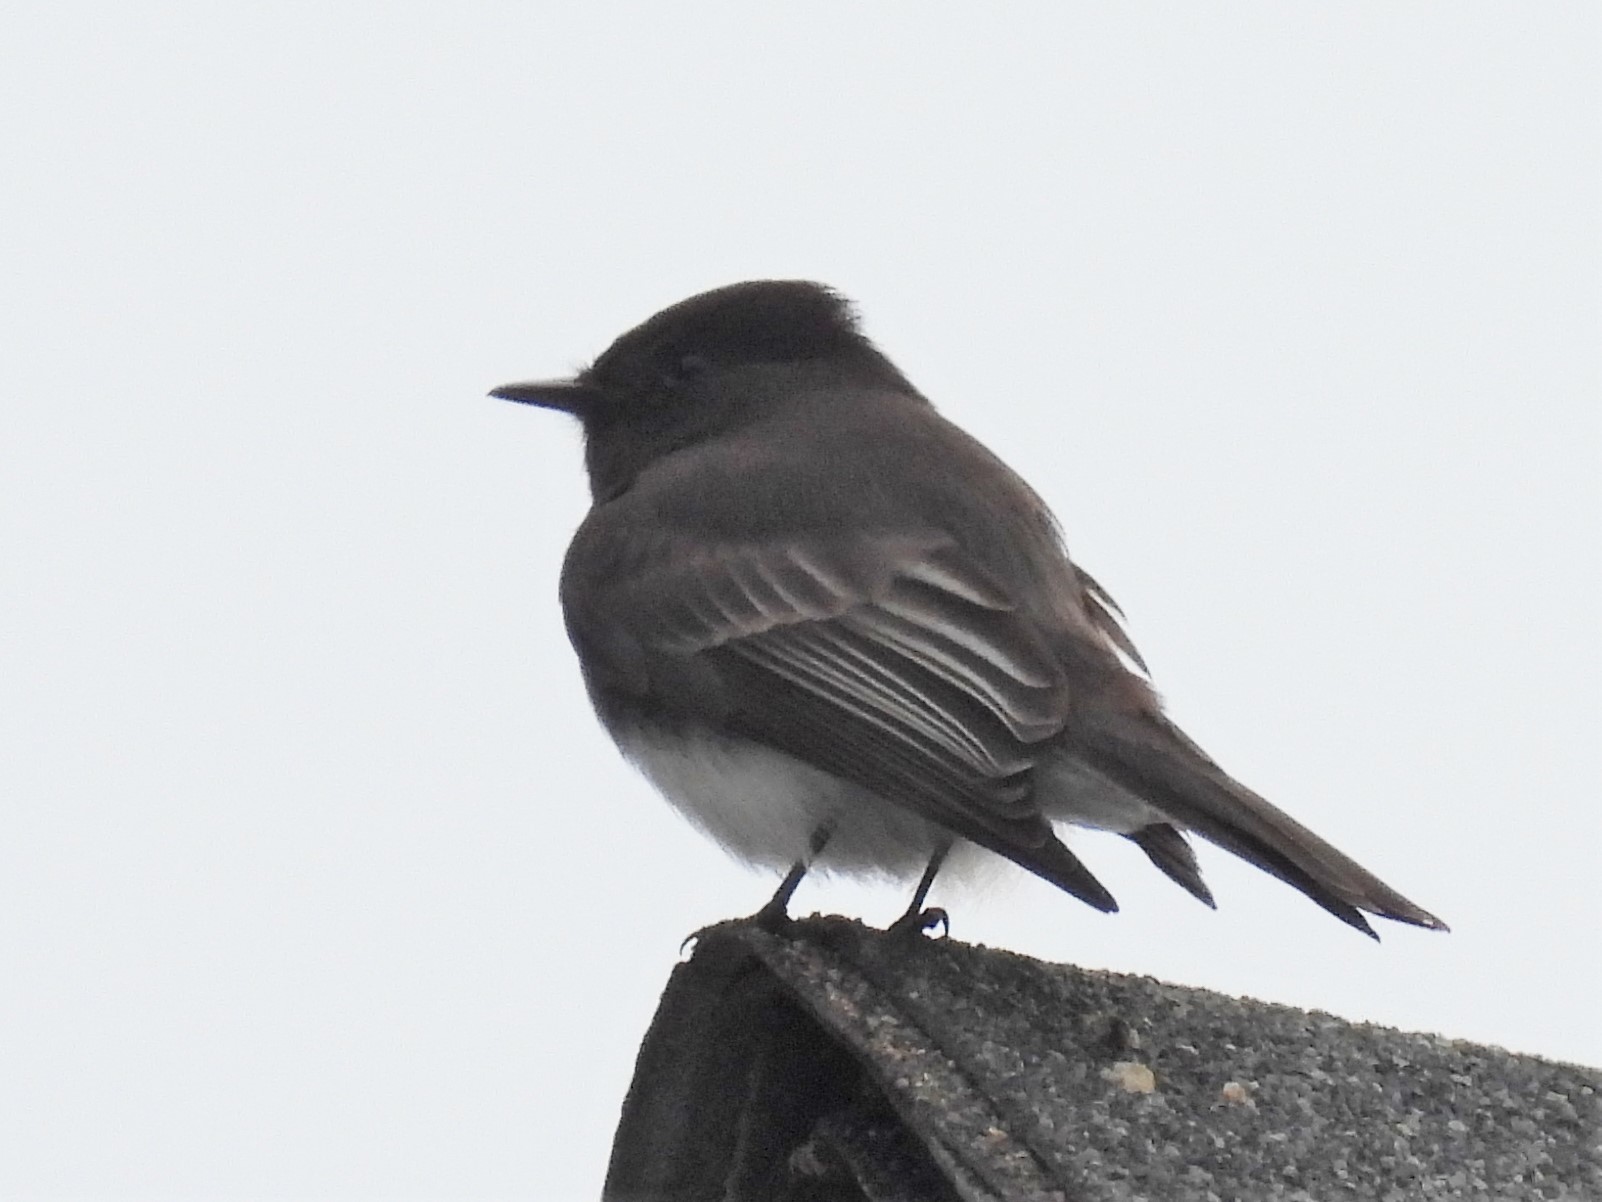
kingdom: Animalia
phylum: Chordata
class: Aves
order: Passeriformes
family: Tyrannidae
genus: Sayornis
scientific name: Sayornis nigricans
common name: Black phoebe
